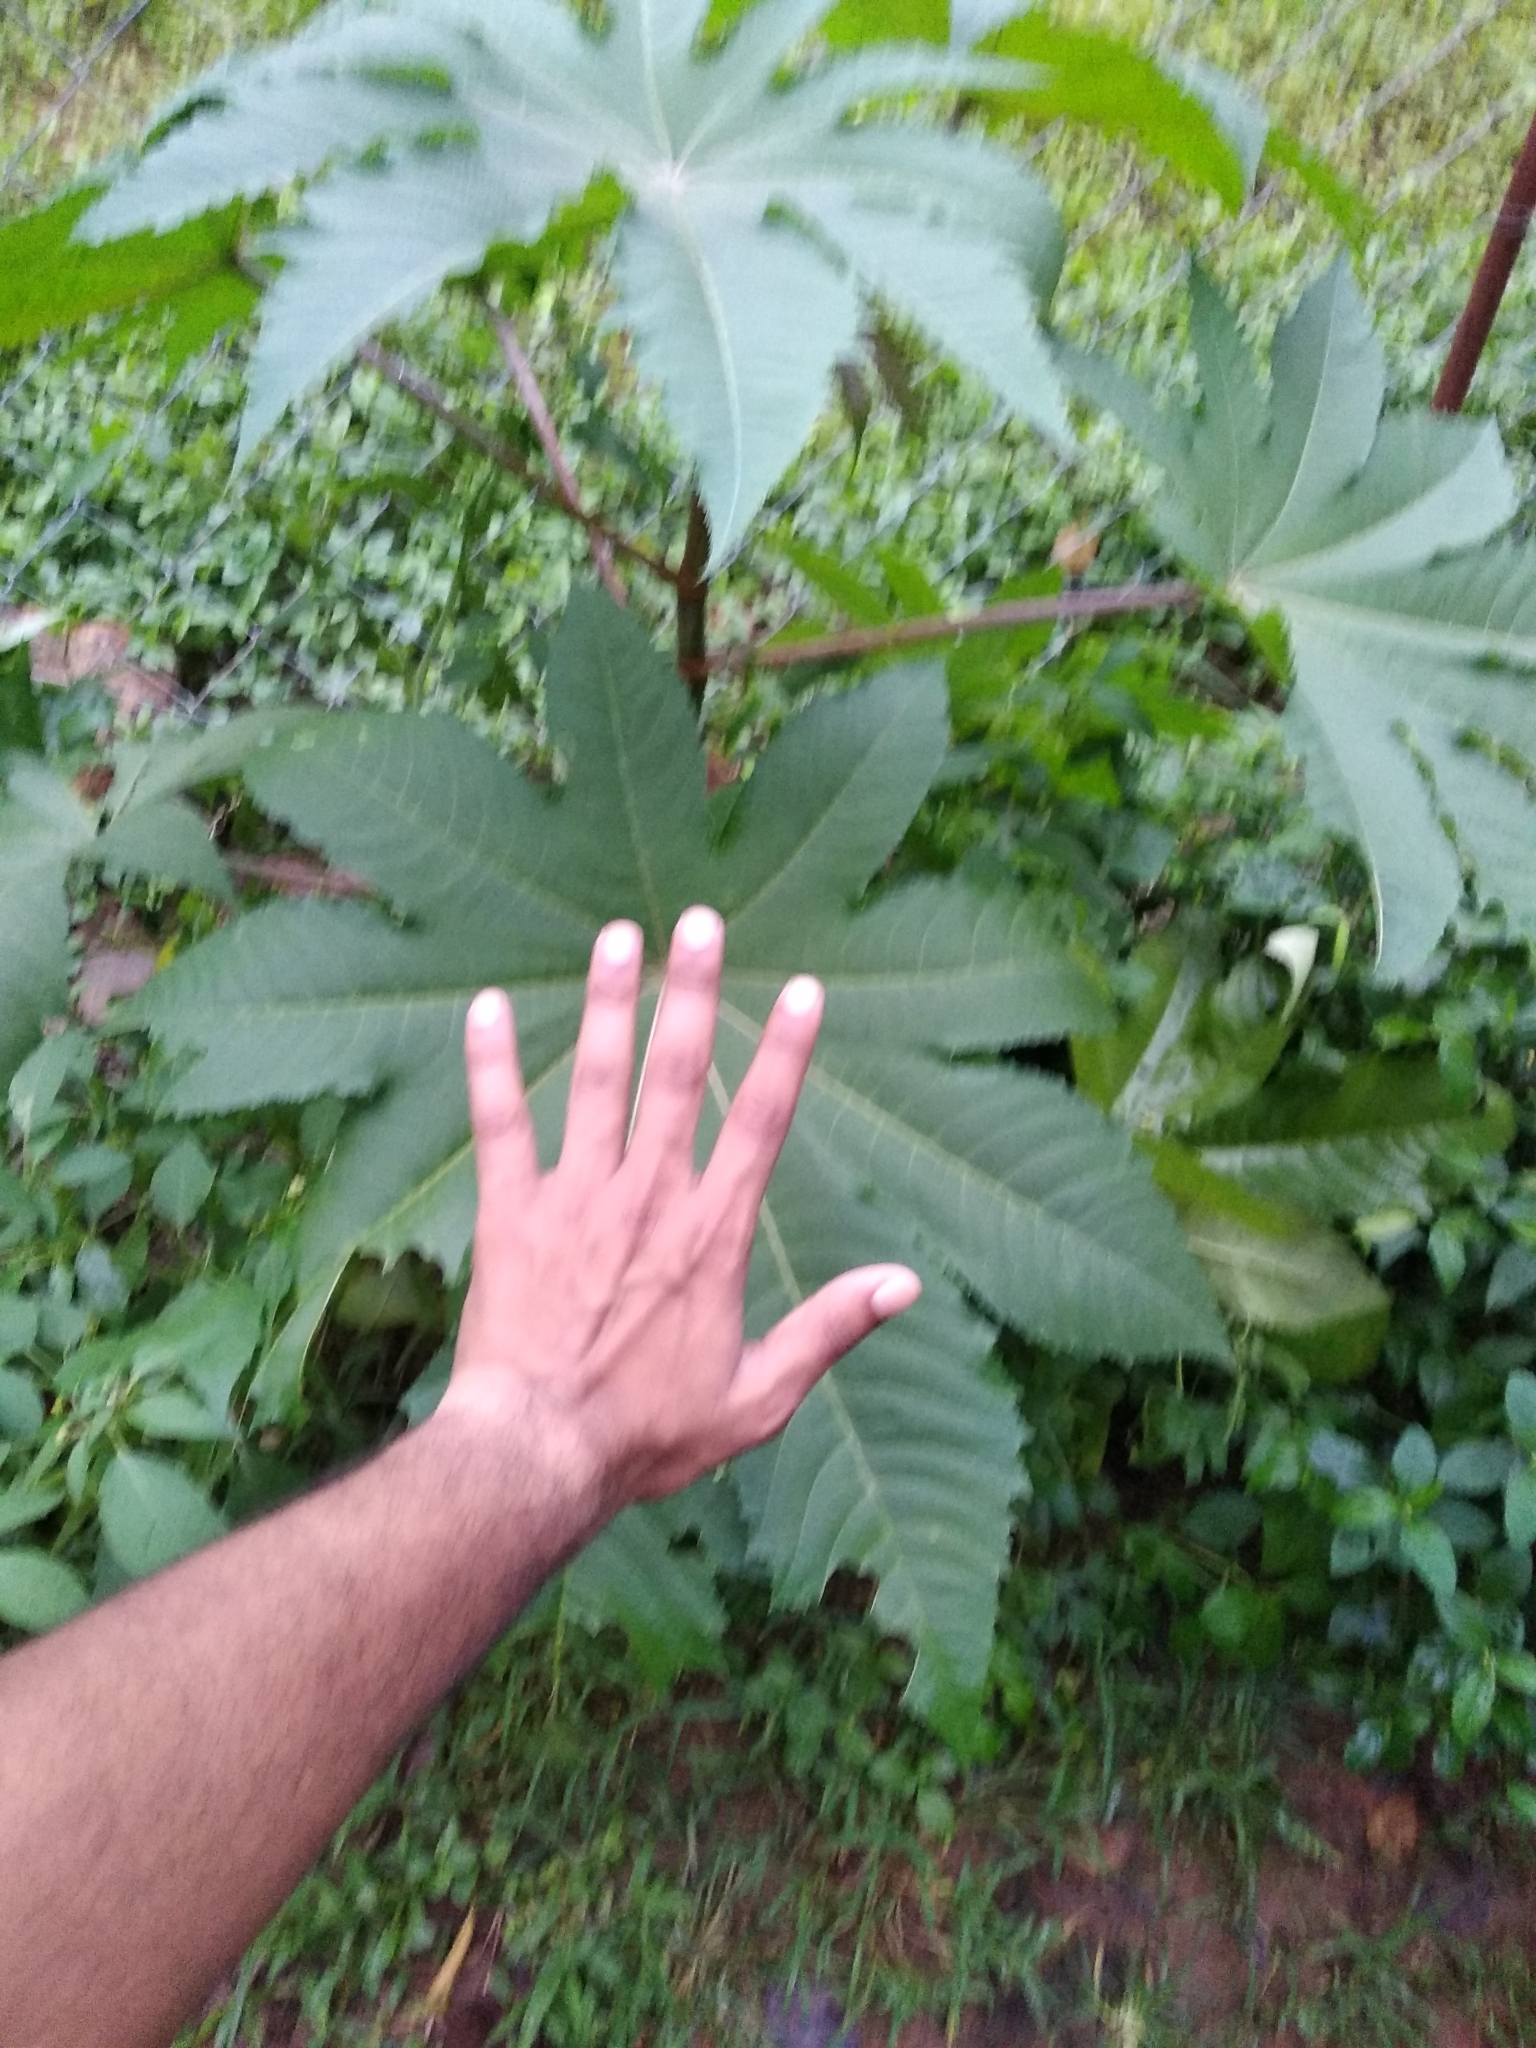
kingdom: Plantae
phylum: Tracheophyta
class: Magnoliopsida
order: Malpighiales
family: Euphorbiaceae
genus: Ricinus
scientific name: Ricinus communis
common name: Castor-oil-plant
